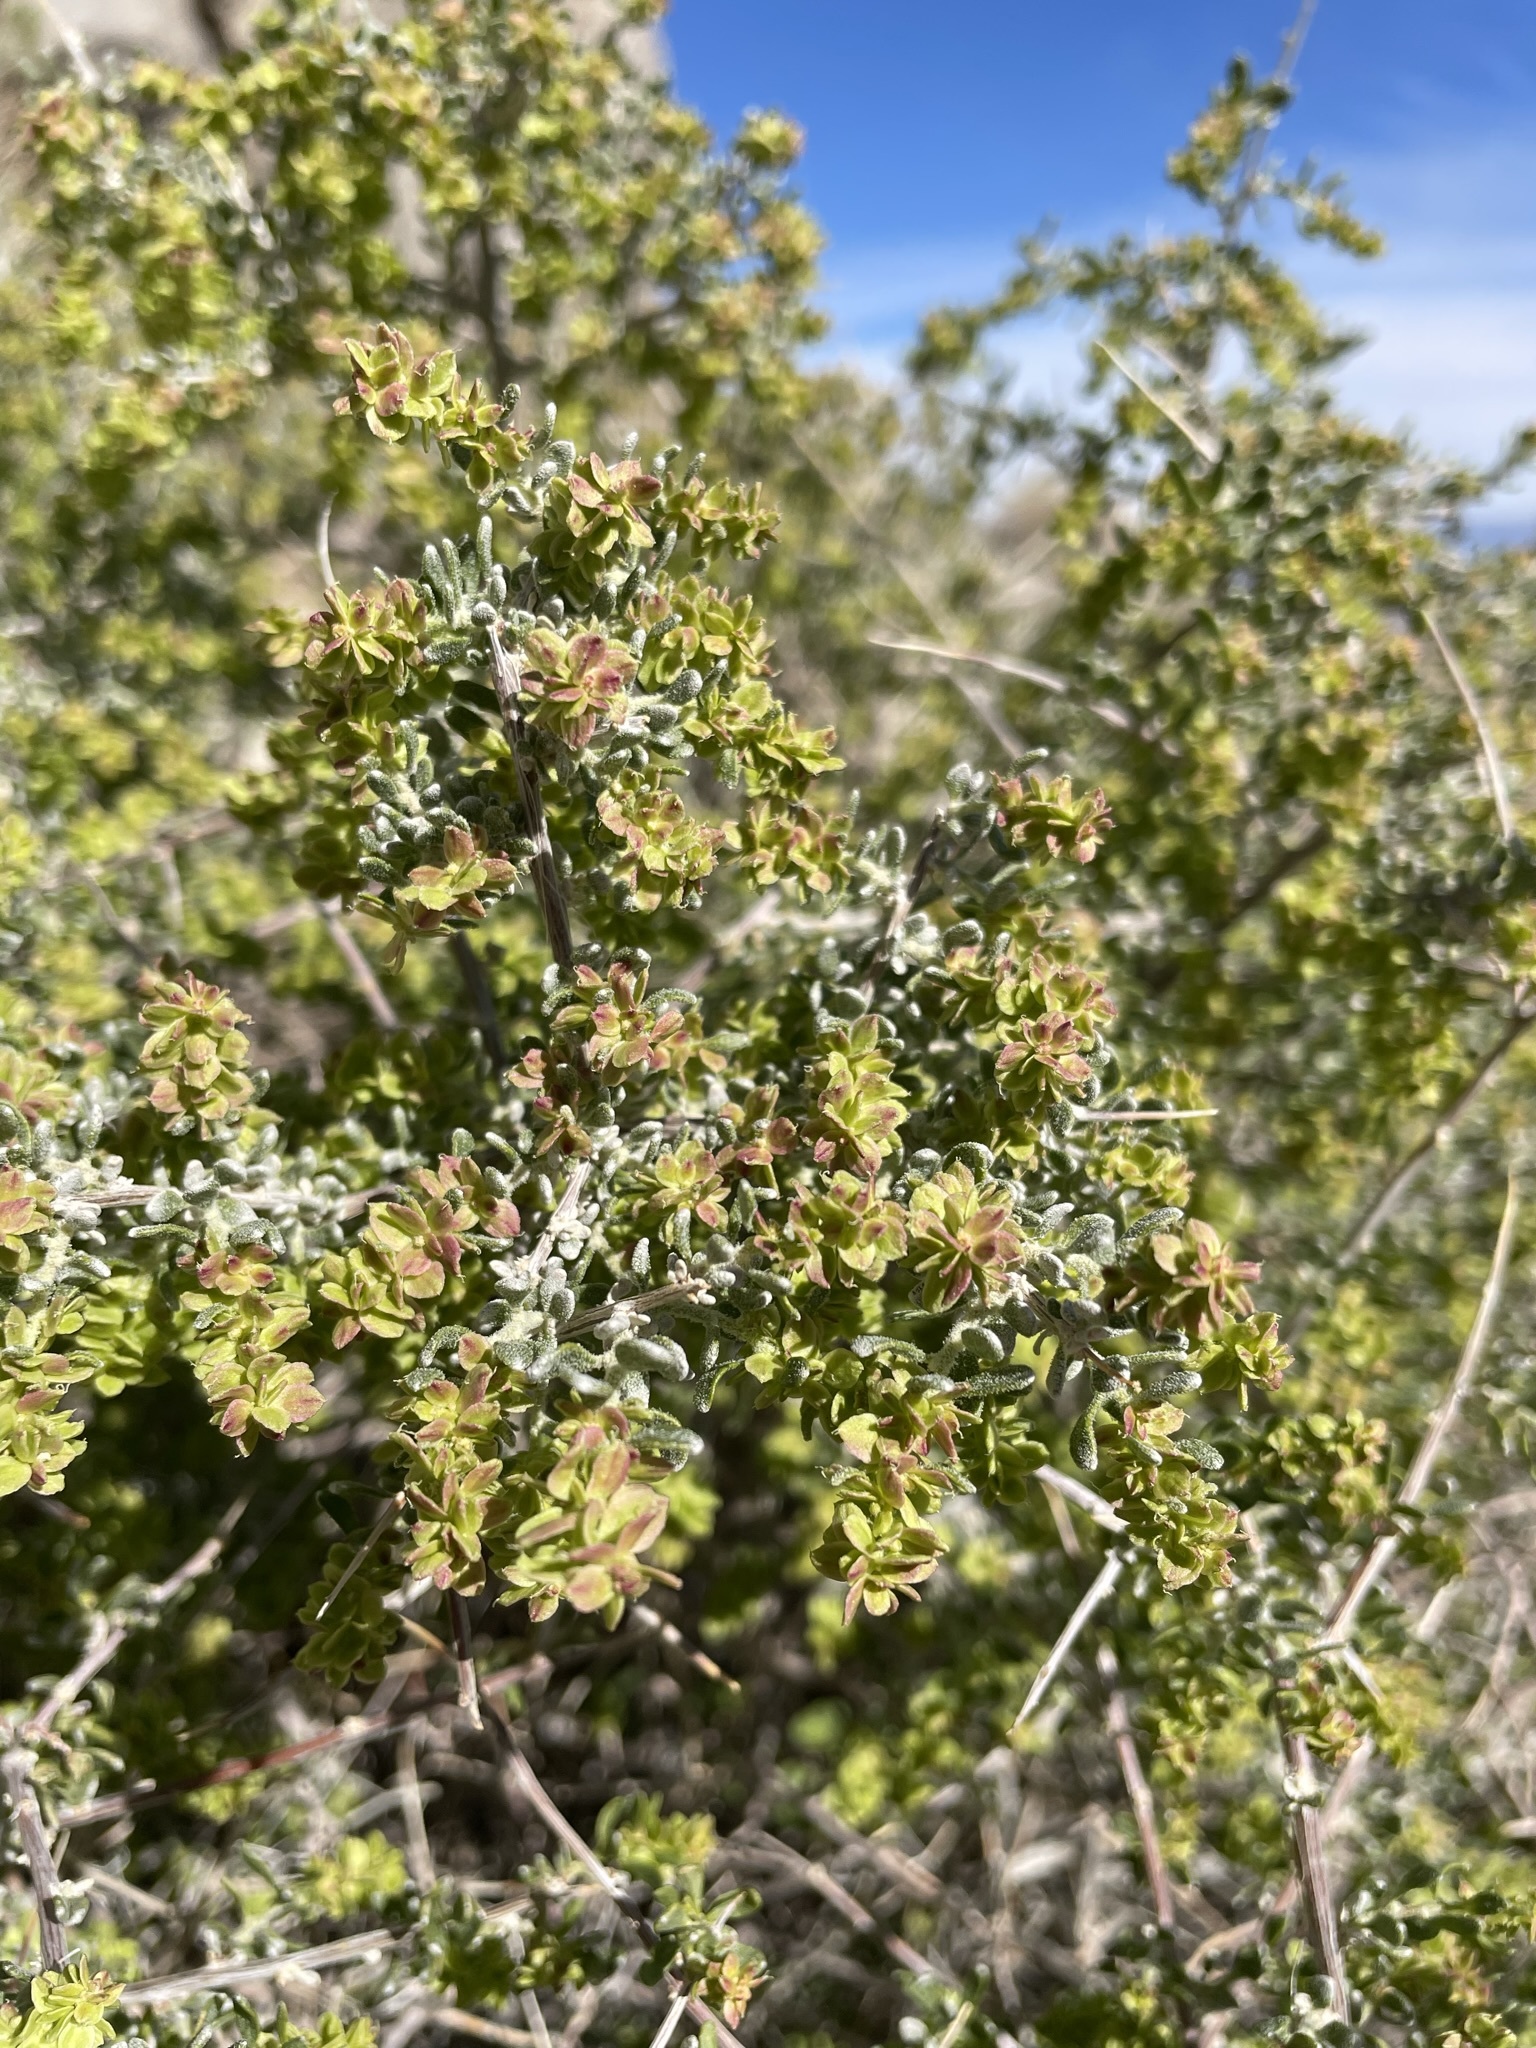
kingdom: Plantae
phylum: Tracheophyta
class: Magnoliopsida
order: Caryophyllales
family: Amaranthaceae
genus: Grayia
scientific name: Grayia spinosa
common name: Spiny hopsage
